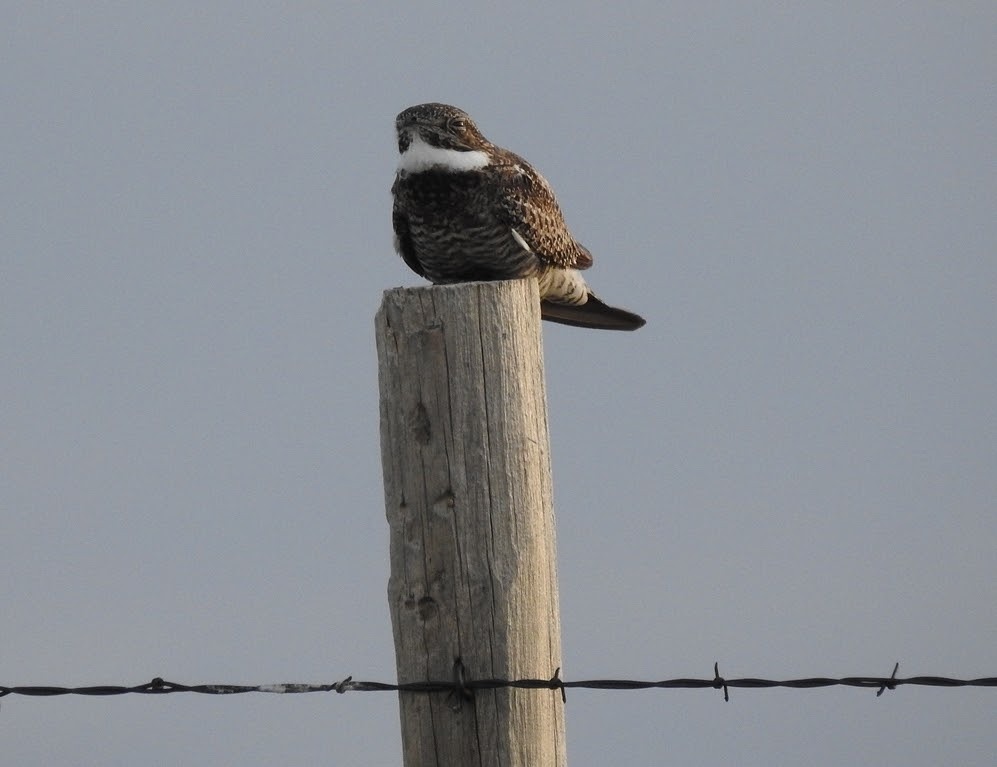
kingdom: Animalia
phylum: Chordata
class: Aves
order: Caprimulgiformes
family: Caprimulgidae
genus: Chordeiles
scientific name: Chordeiles minor
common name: Common nighthawk
